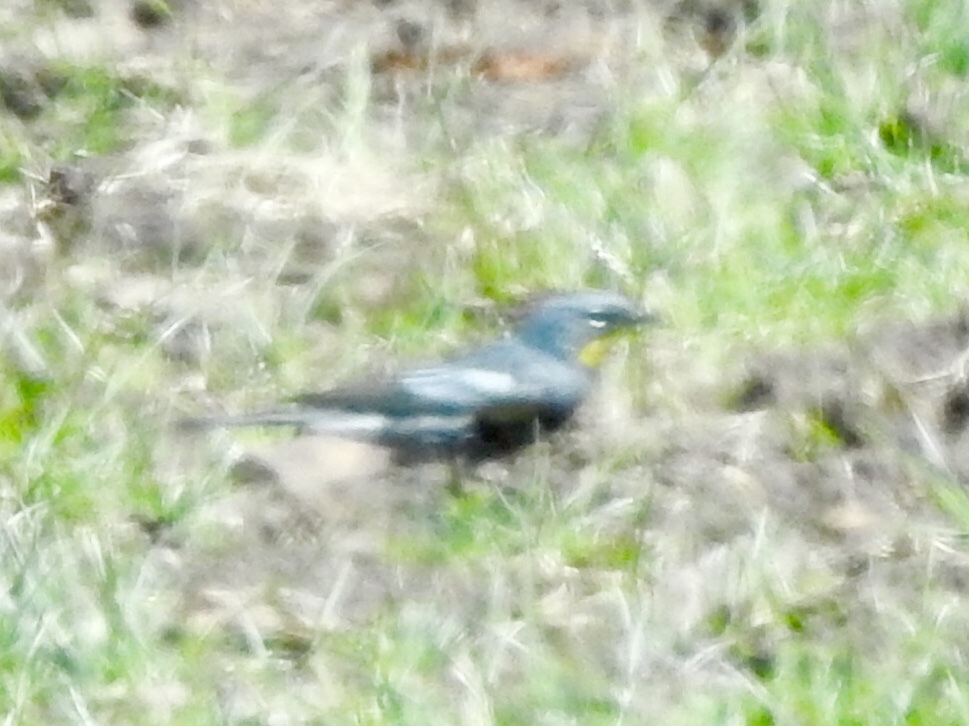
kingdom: Animalia
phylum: Chordata
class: Aves
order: Passeriformes
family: Parulidae
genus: Setophaga
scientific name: Setophaga coronata
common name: Myrtle warbler
